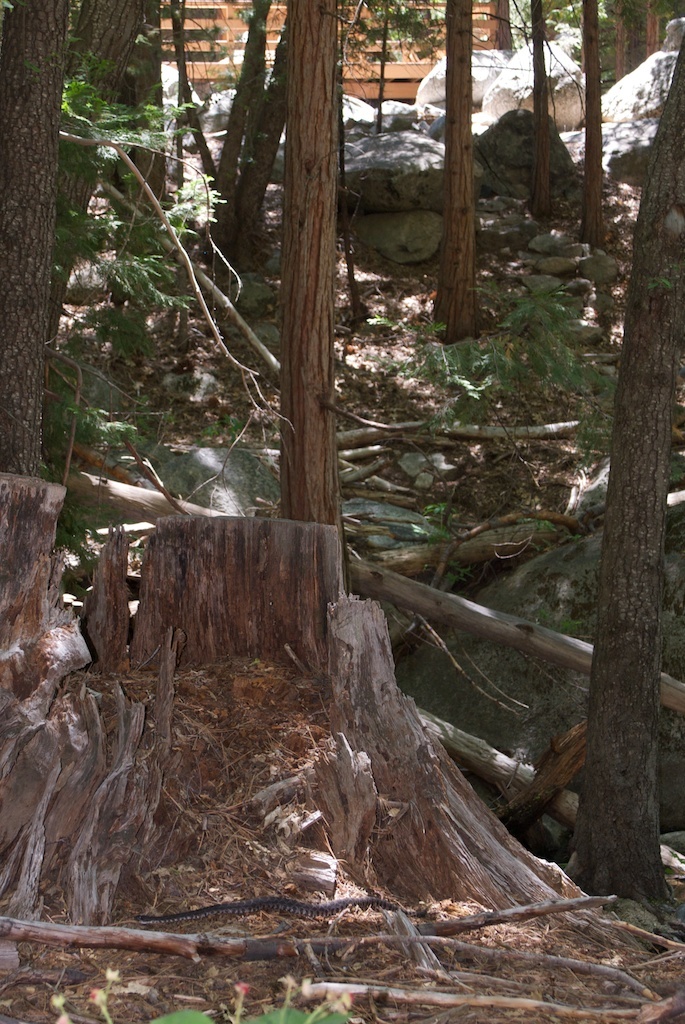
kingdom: Animalia
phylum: Chordata
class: Squamata
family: Viperidae
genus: Crotalus
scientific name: Crotalus oreganus
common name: Abyssus
